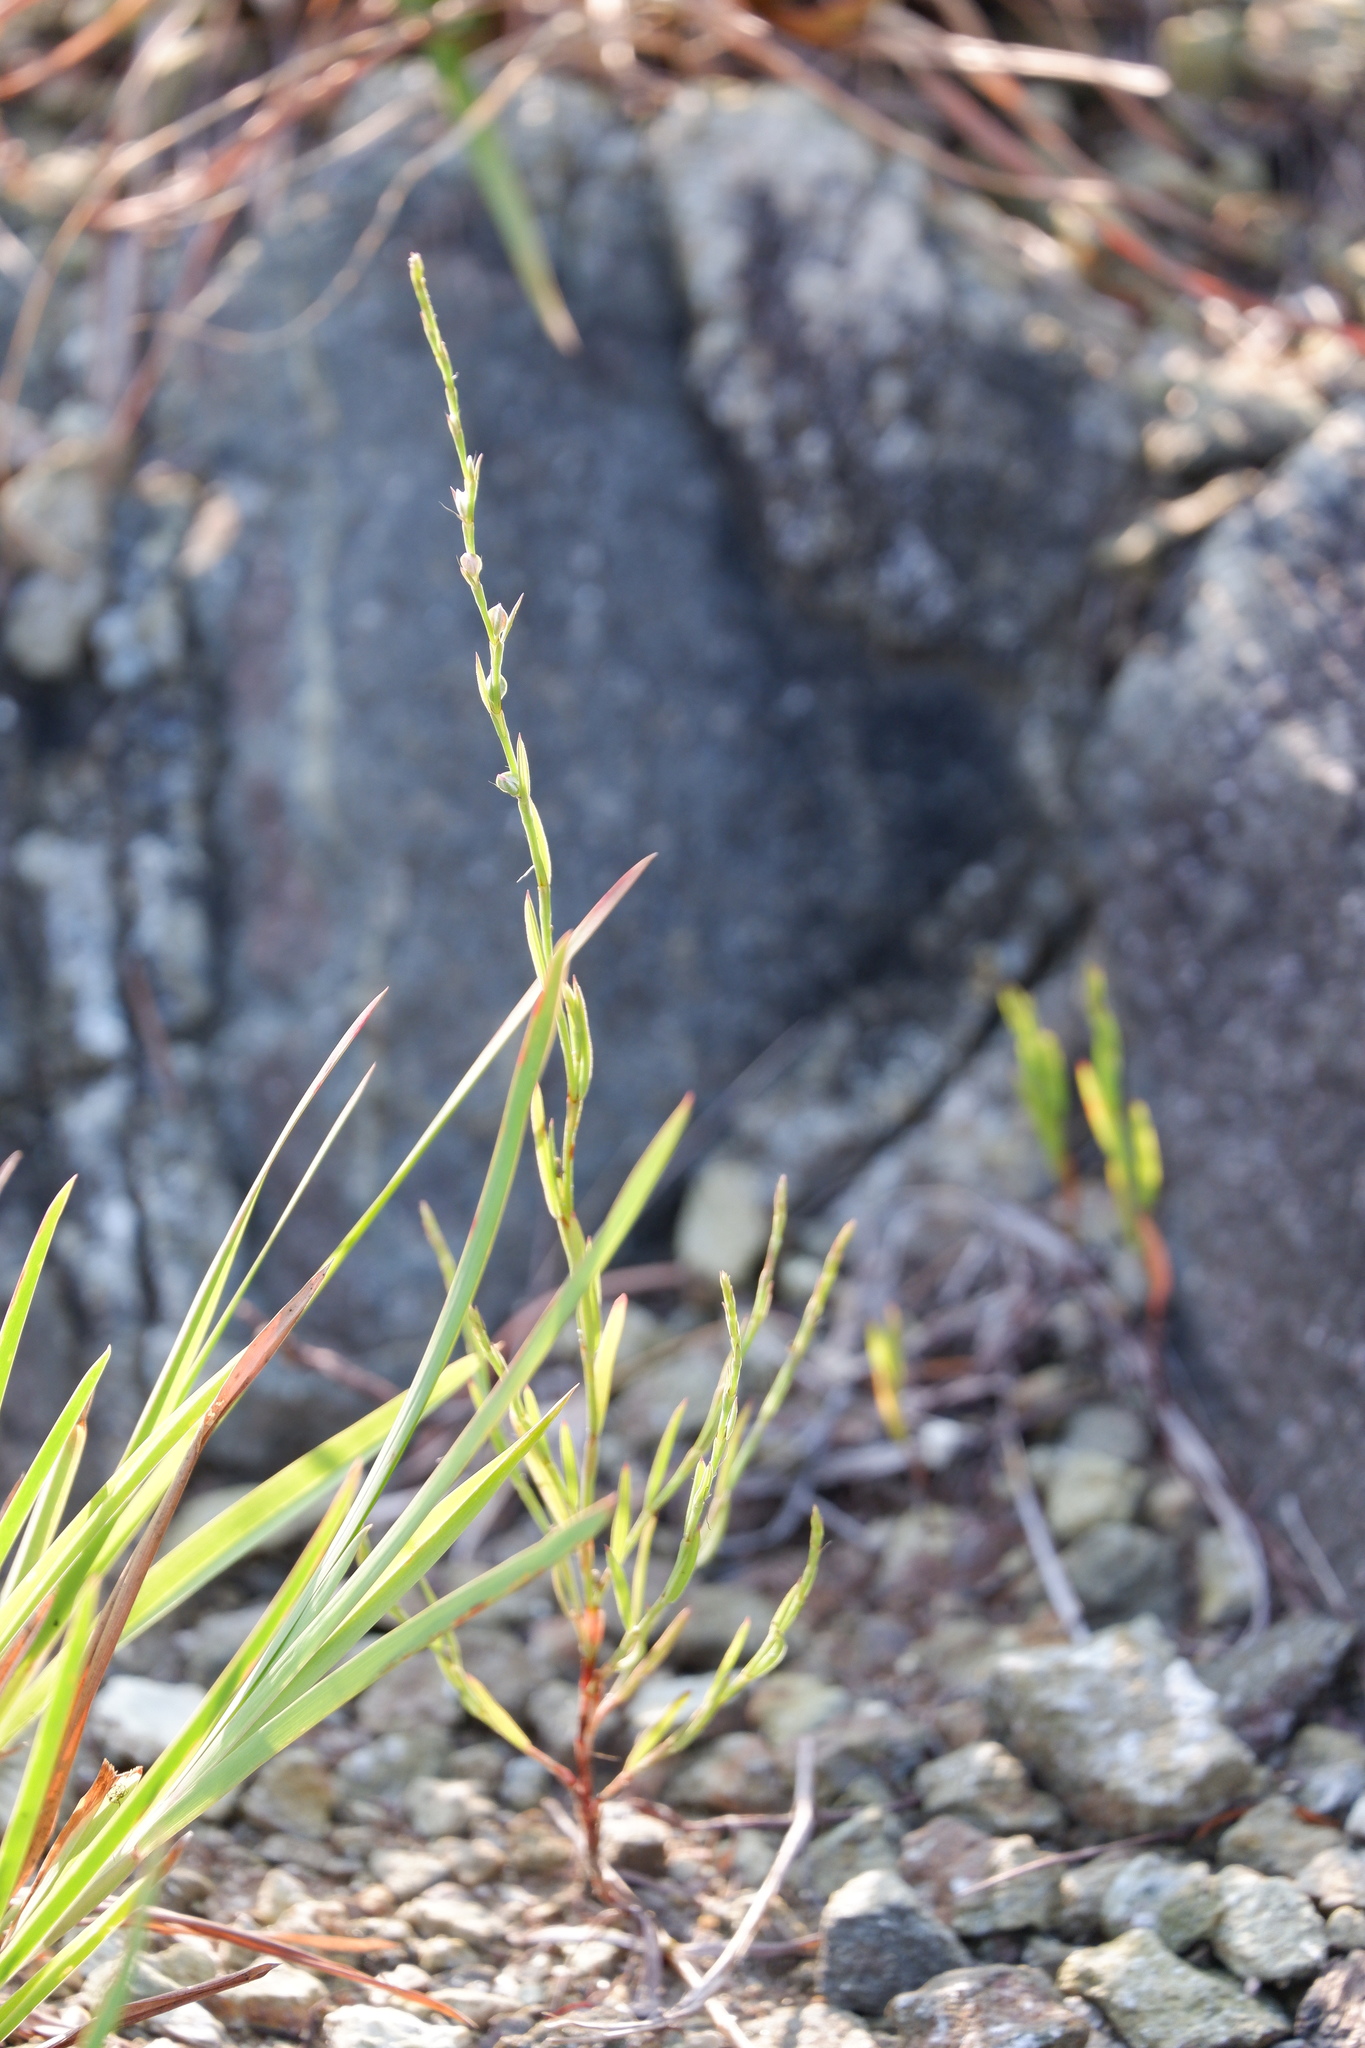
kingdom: Plantae
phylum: Tracheophyta
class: Magnoliopsida
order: Caryophyllales
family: Polygonaceae
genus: Polygonum
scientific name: Polygonum tenue
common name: Pleat-leaved knotweed
